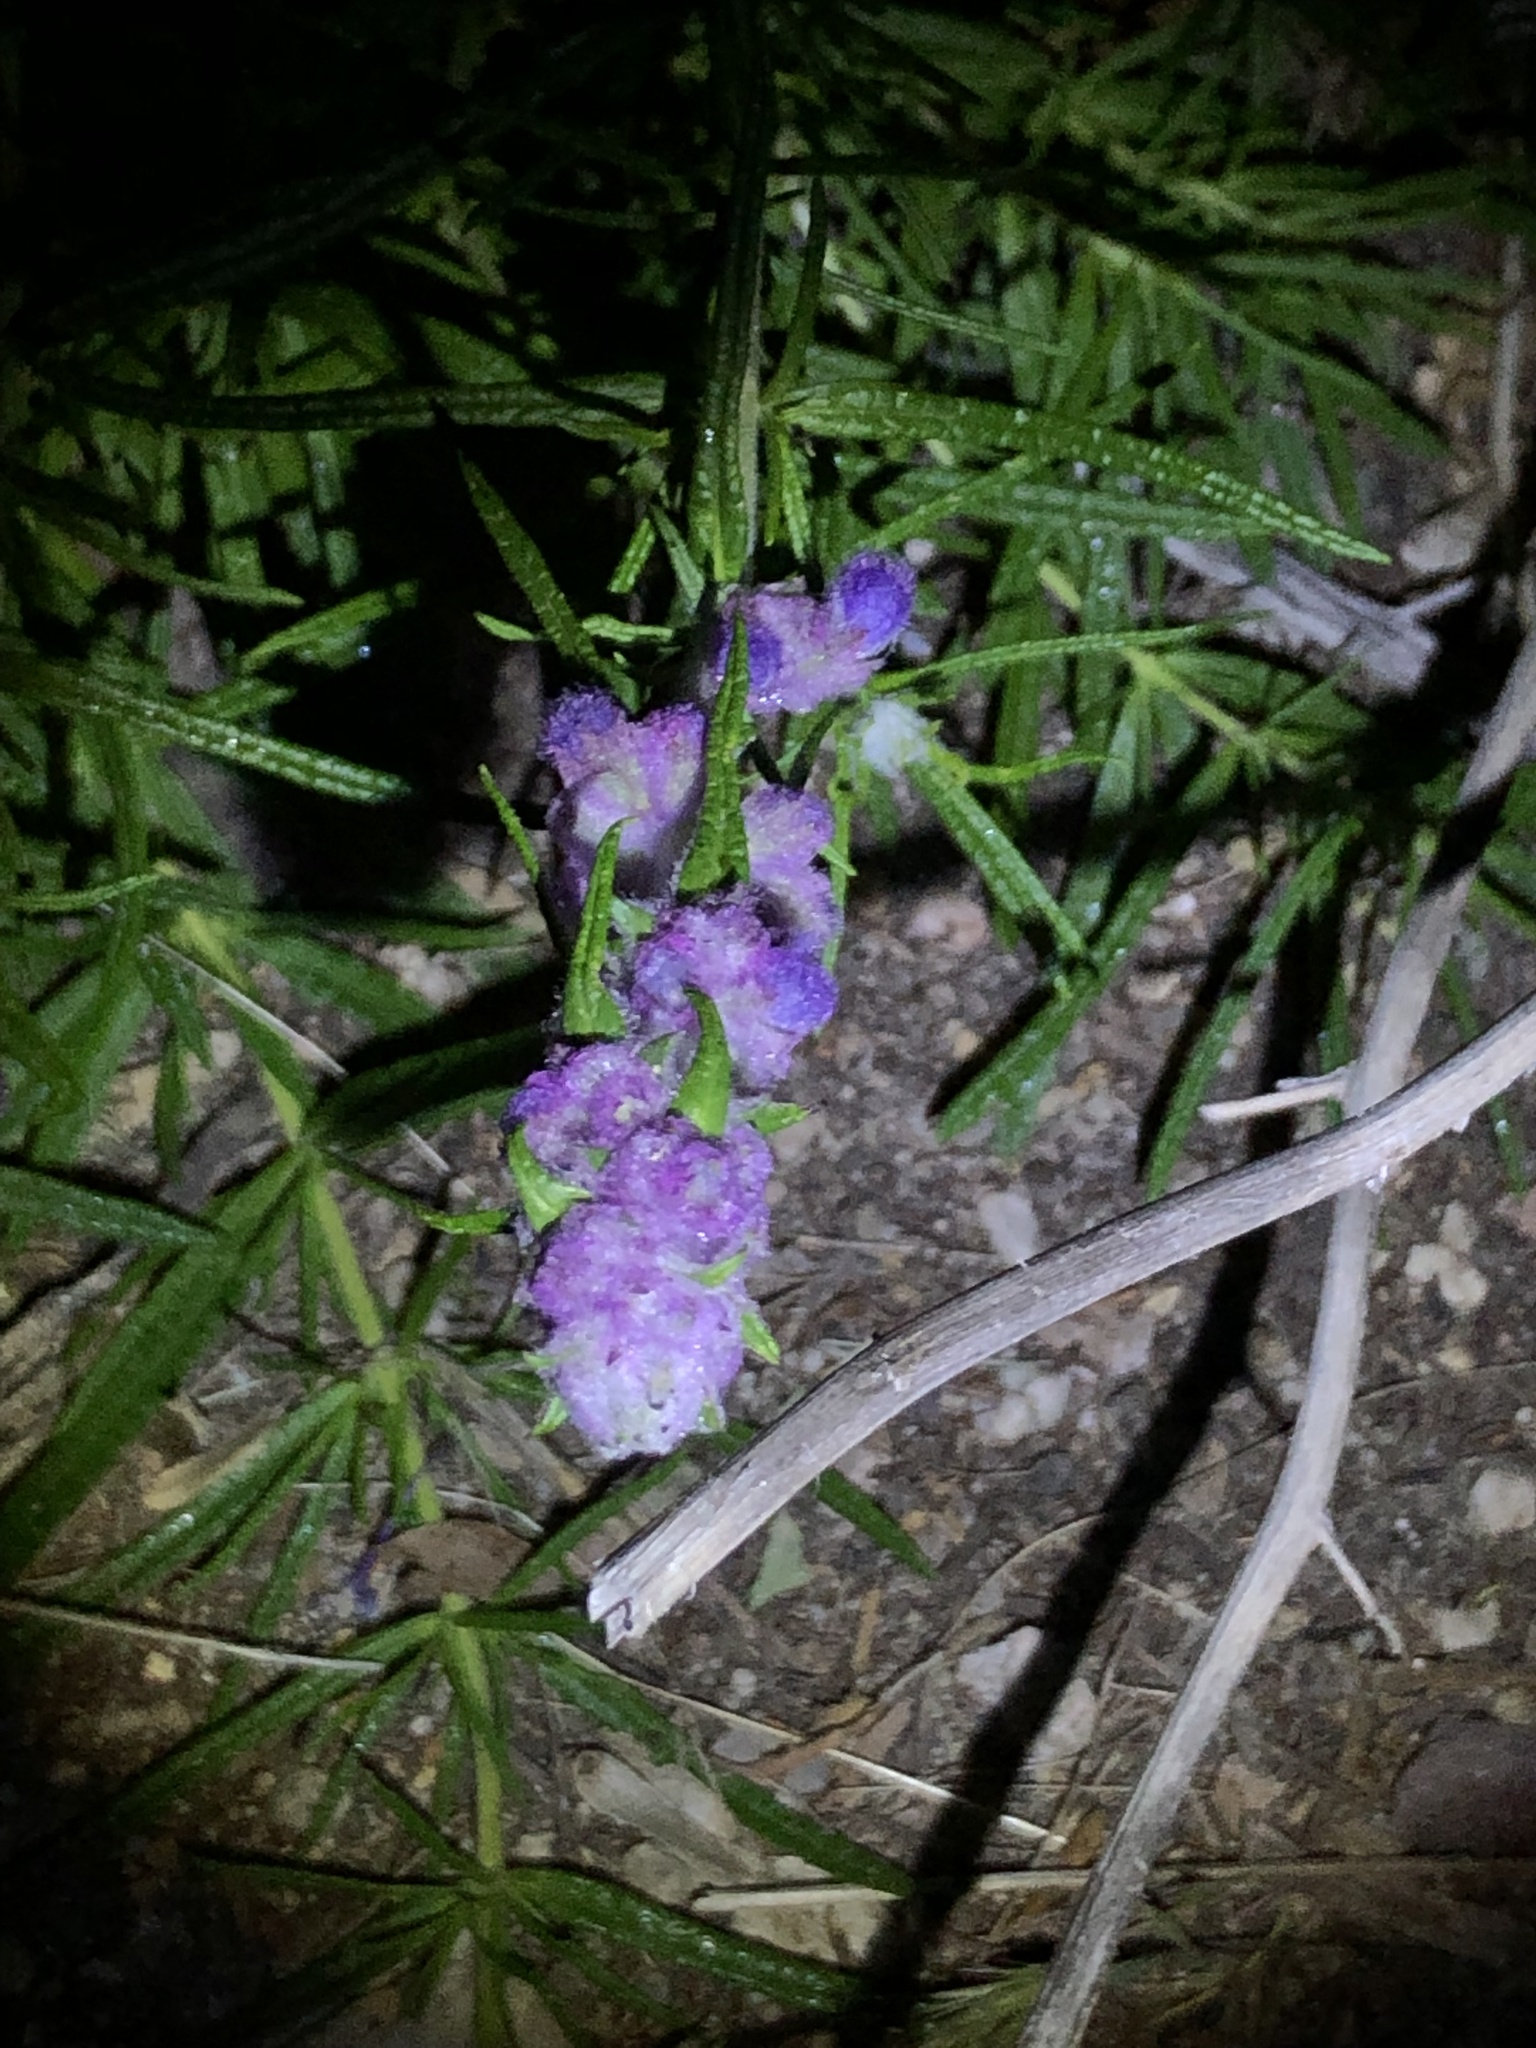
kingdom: Plantae
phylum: Tracheophyta
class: Magnoliopsida
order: Lamiales
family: Lamiaceae
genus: Trichostema
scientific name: Trichostema lanatum
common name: Woolly bluecurls
